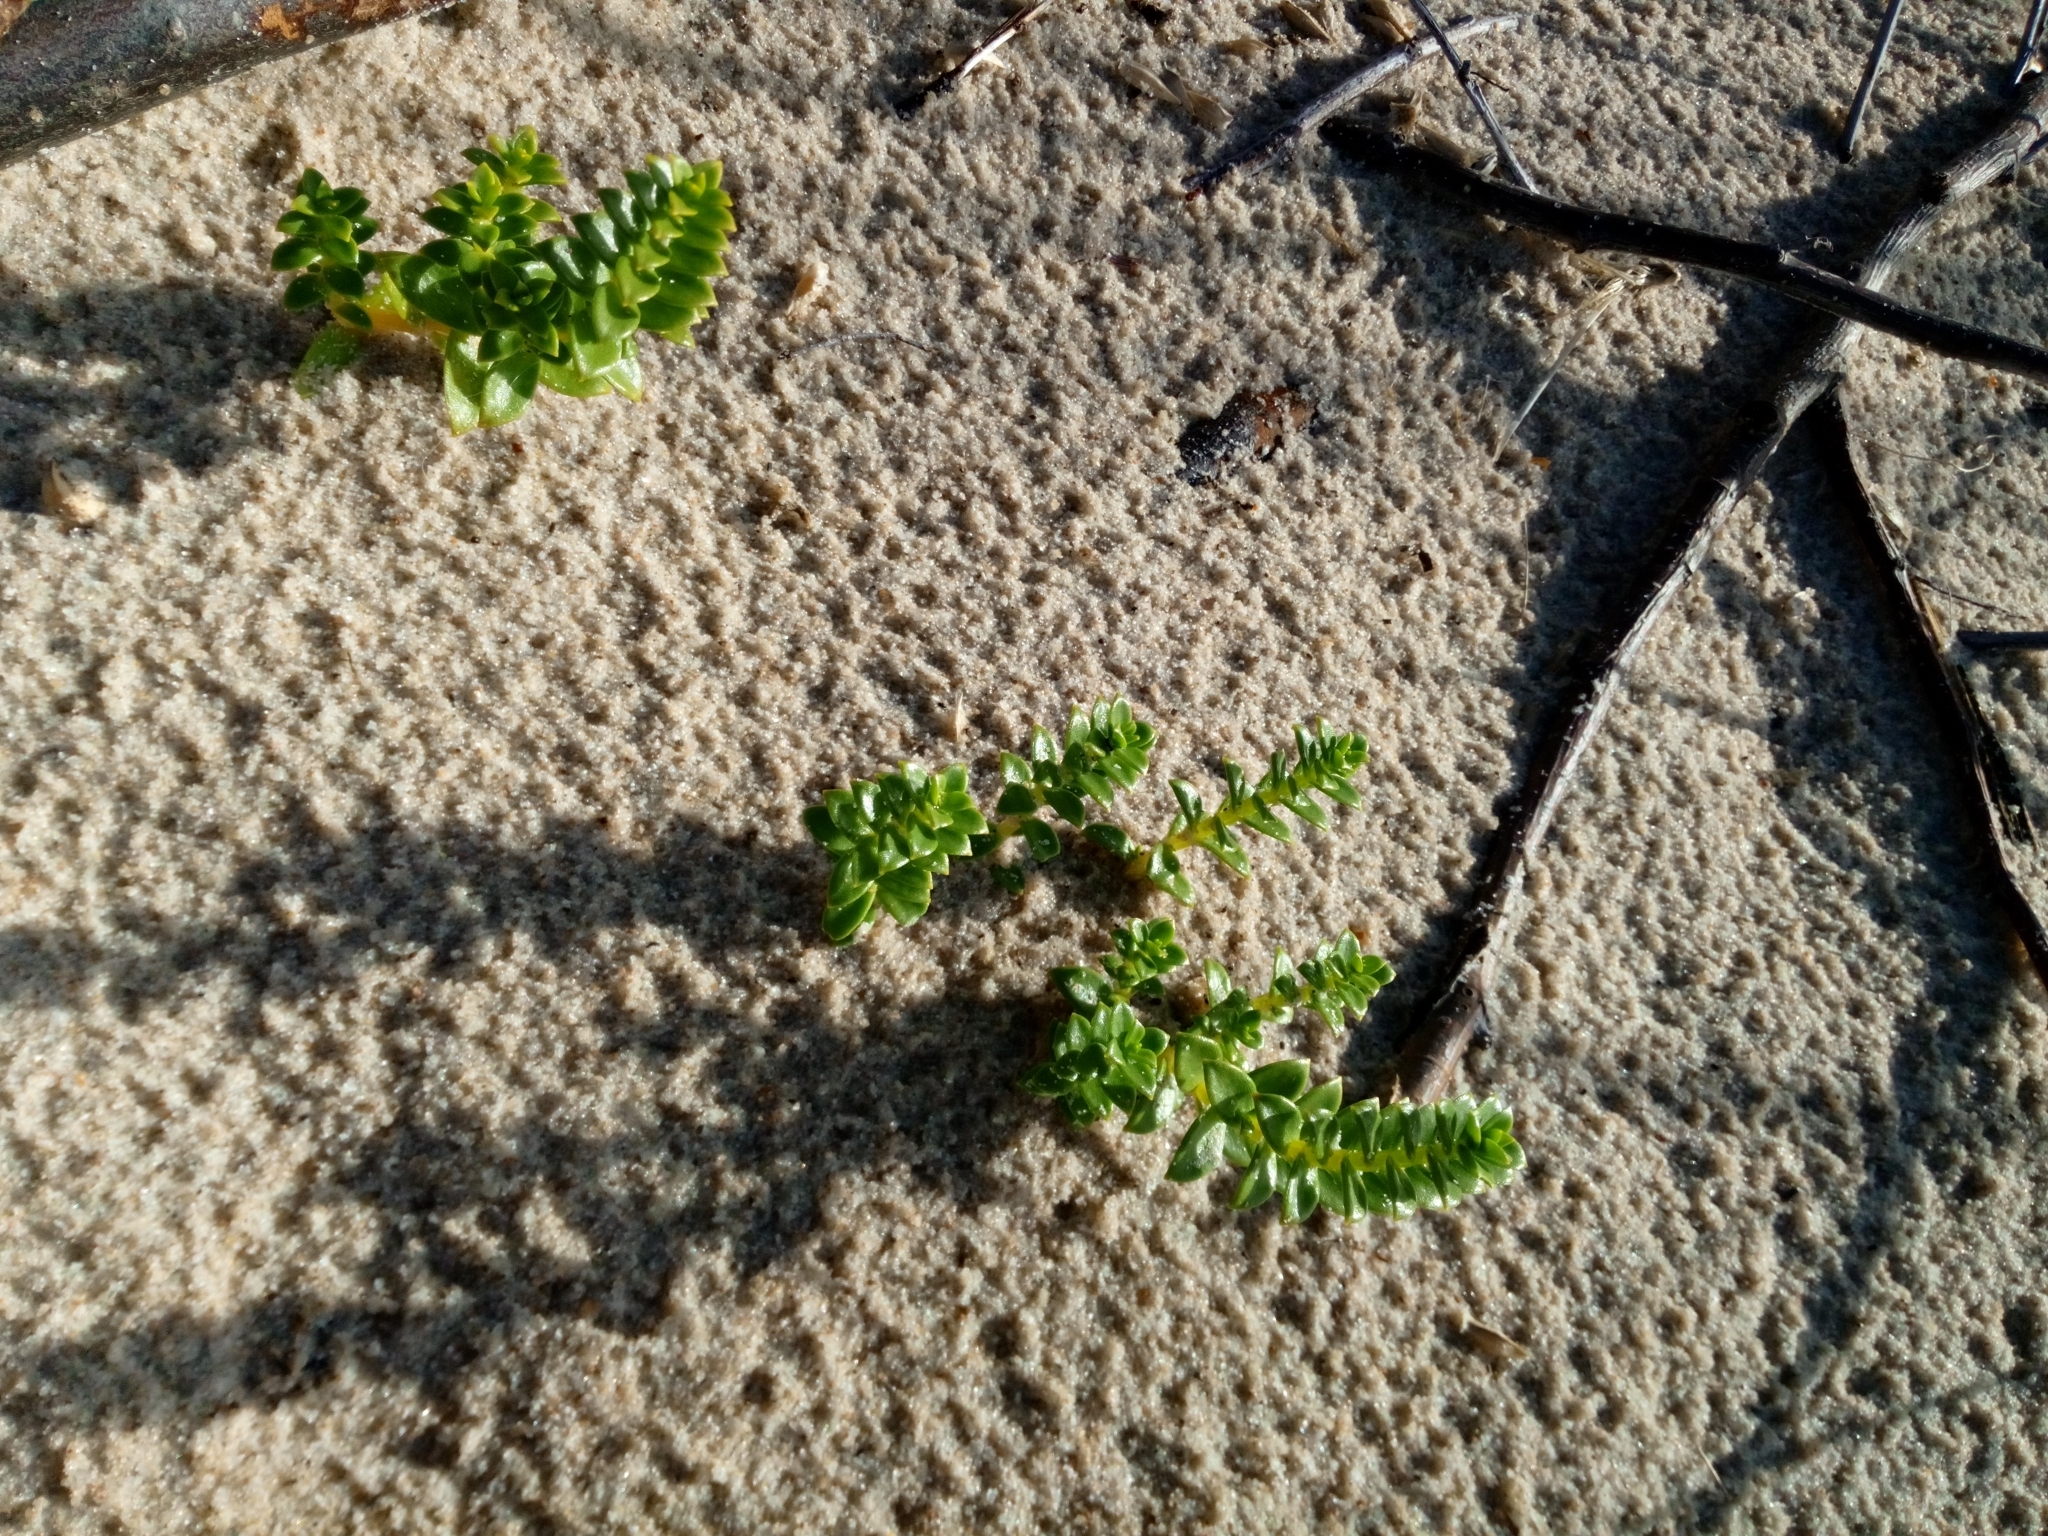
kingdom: Plantae
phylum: Tracheophyta
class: Magnoliopsida
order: Caryophyllales
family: Caryophyllaceae
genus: Honckenya
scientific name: Honckenya peploides
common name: Sea sandwort
